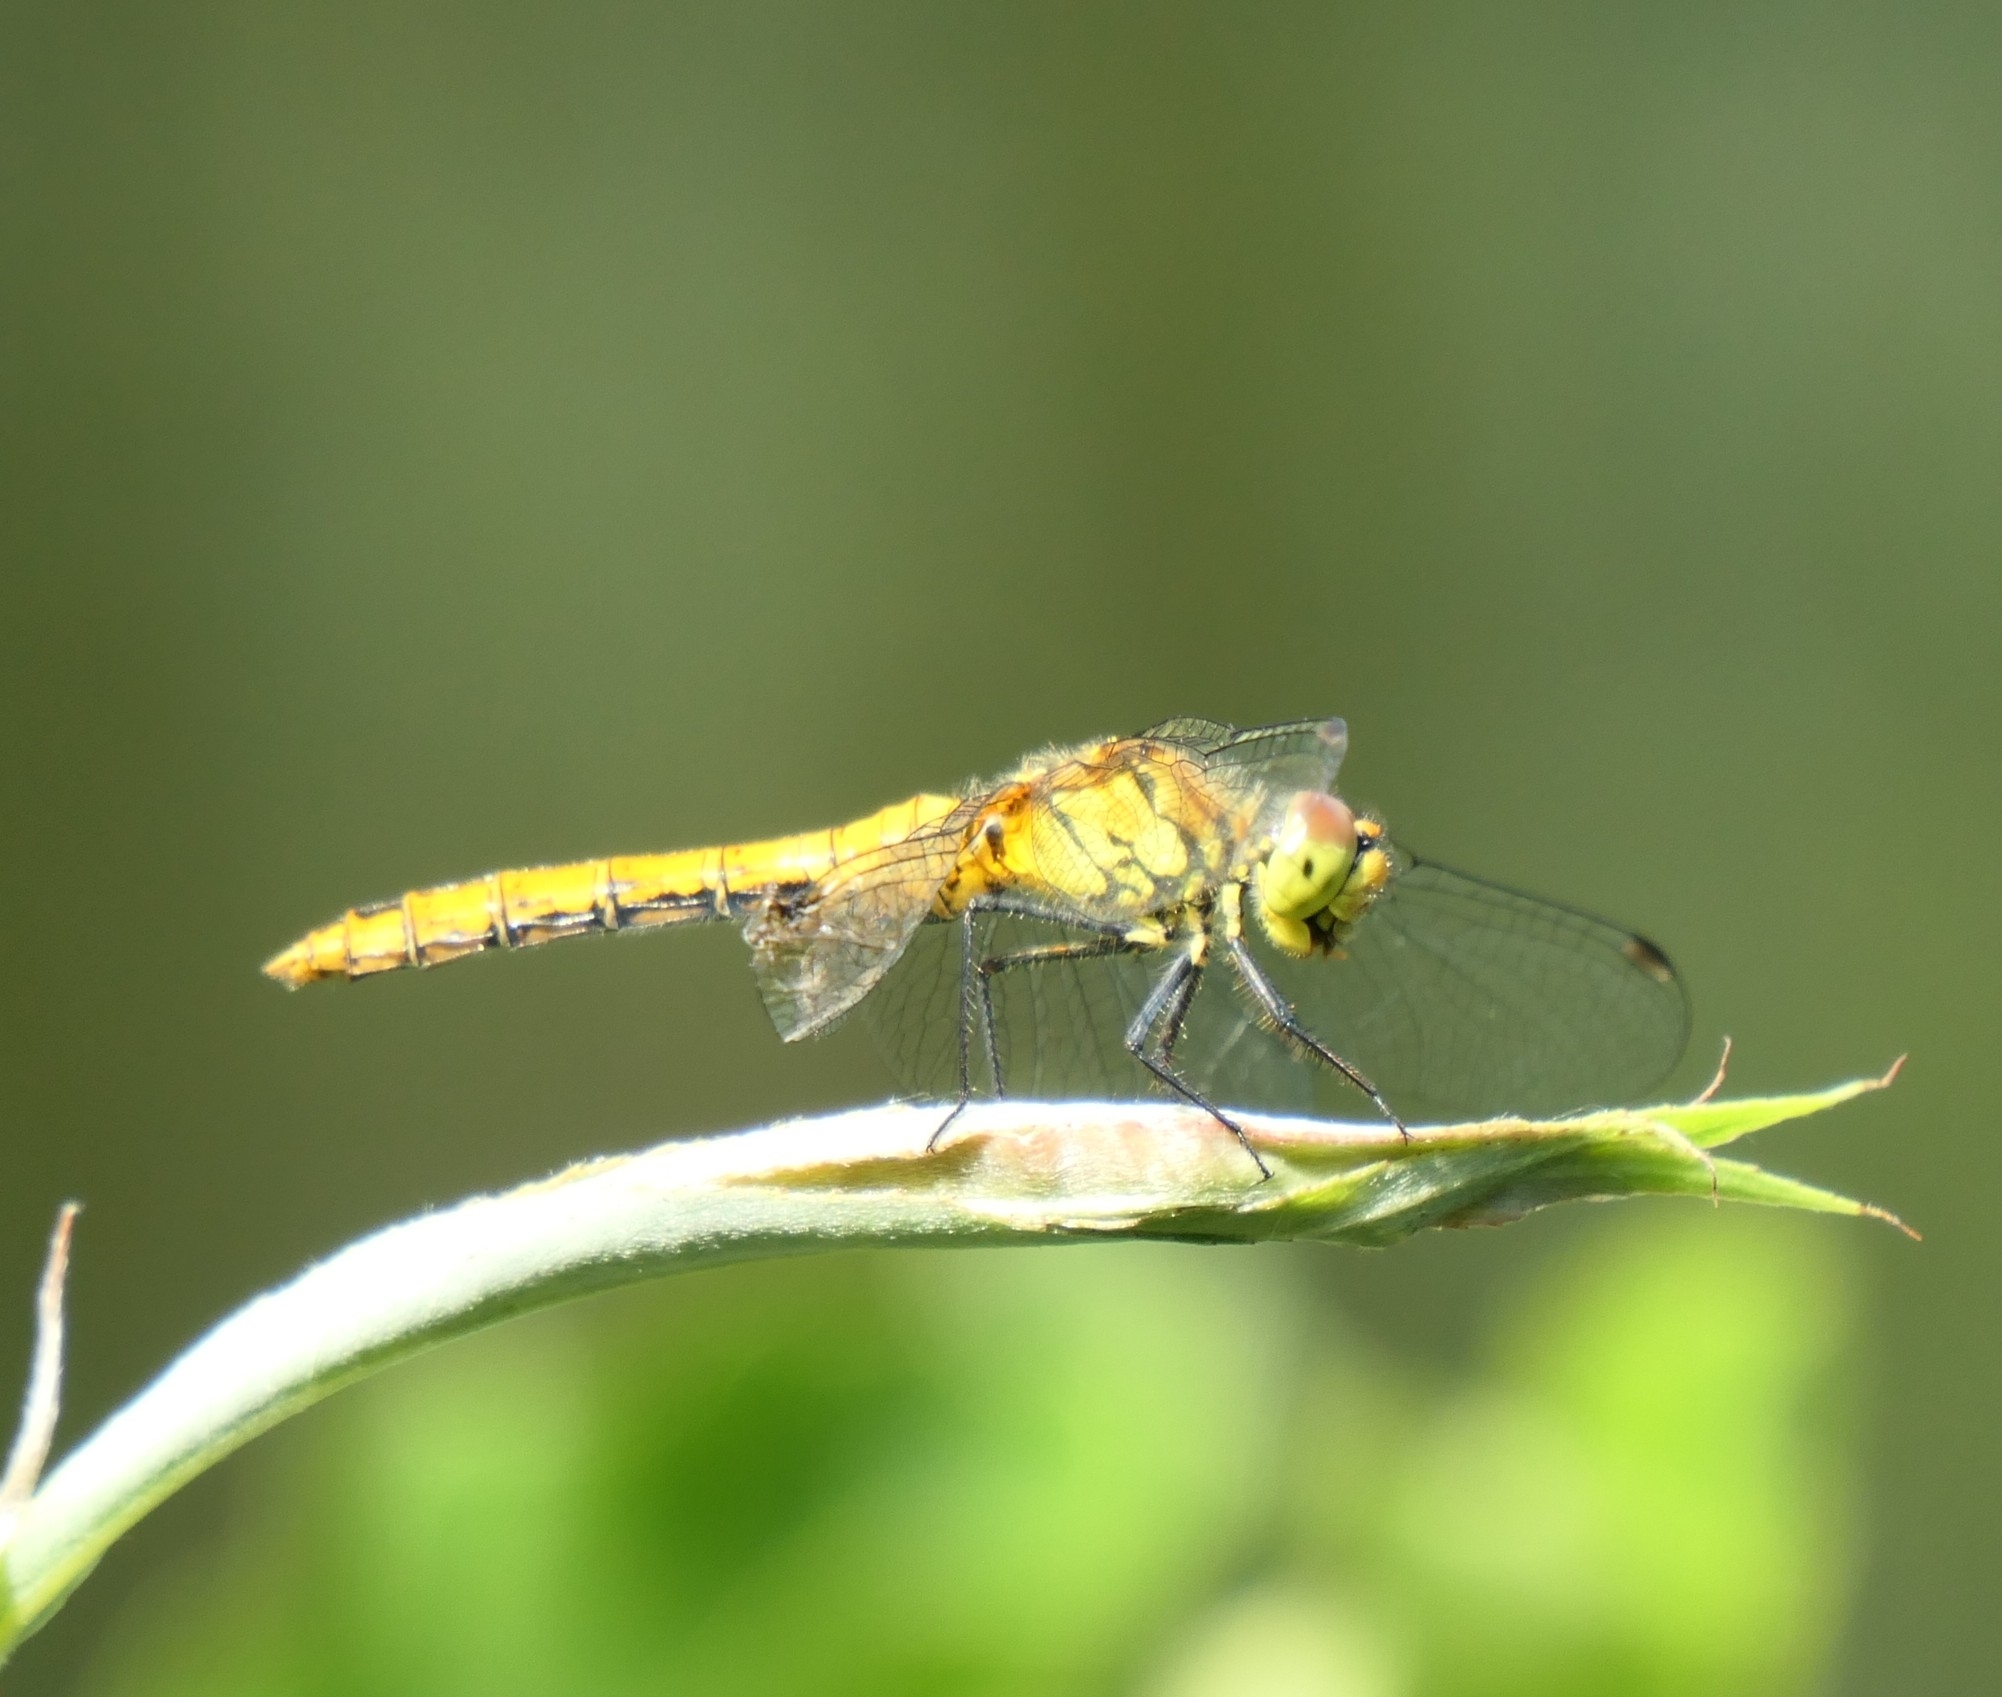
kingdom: Animalia
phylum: Arthropoda
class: Insecta
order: Odonata
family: Libellulidae
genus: Sympetrum
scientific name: Sympetrum sanguineum
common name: Ruddy darter
